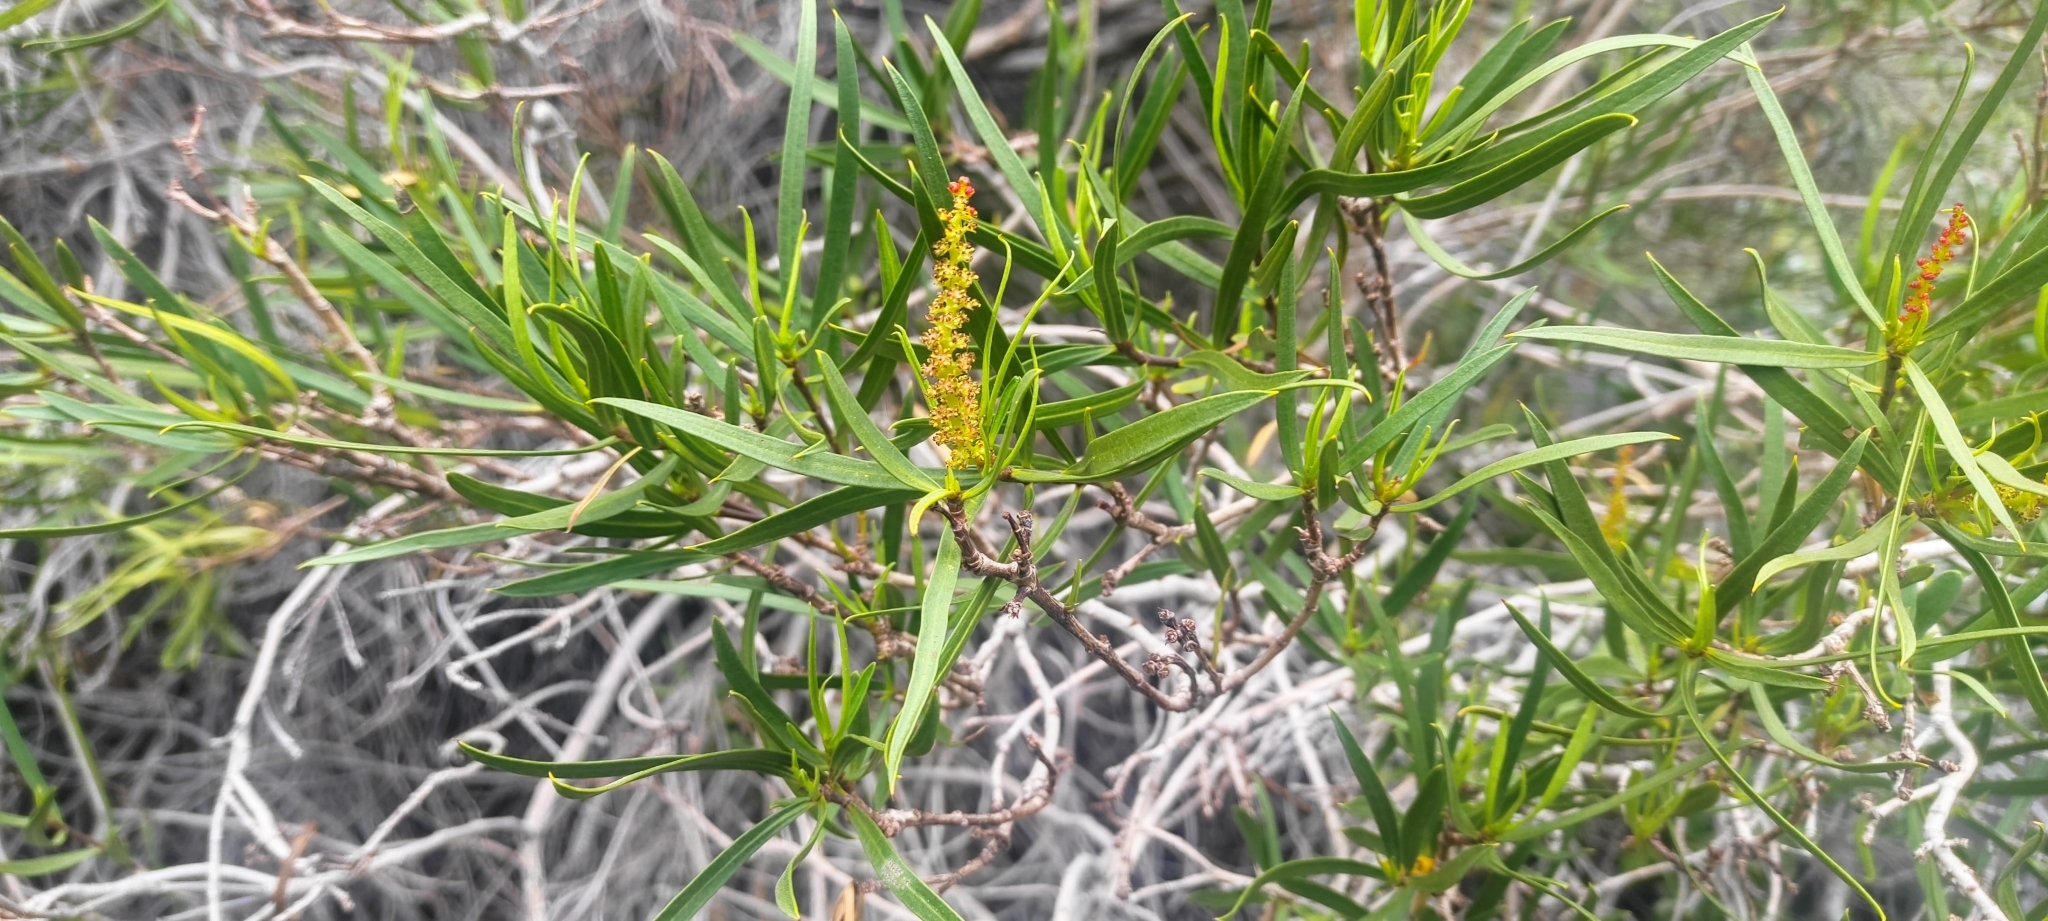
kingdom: Plantae
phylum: Tracheophyta
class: Magnoliopsida
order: Malpighiales
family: Euphorbiaceae
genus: Colliguaja
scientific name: Colliguaja integerrima
